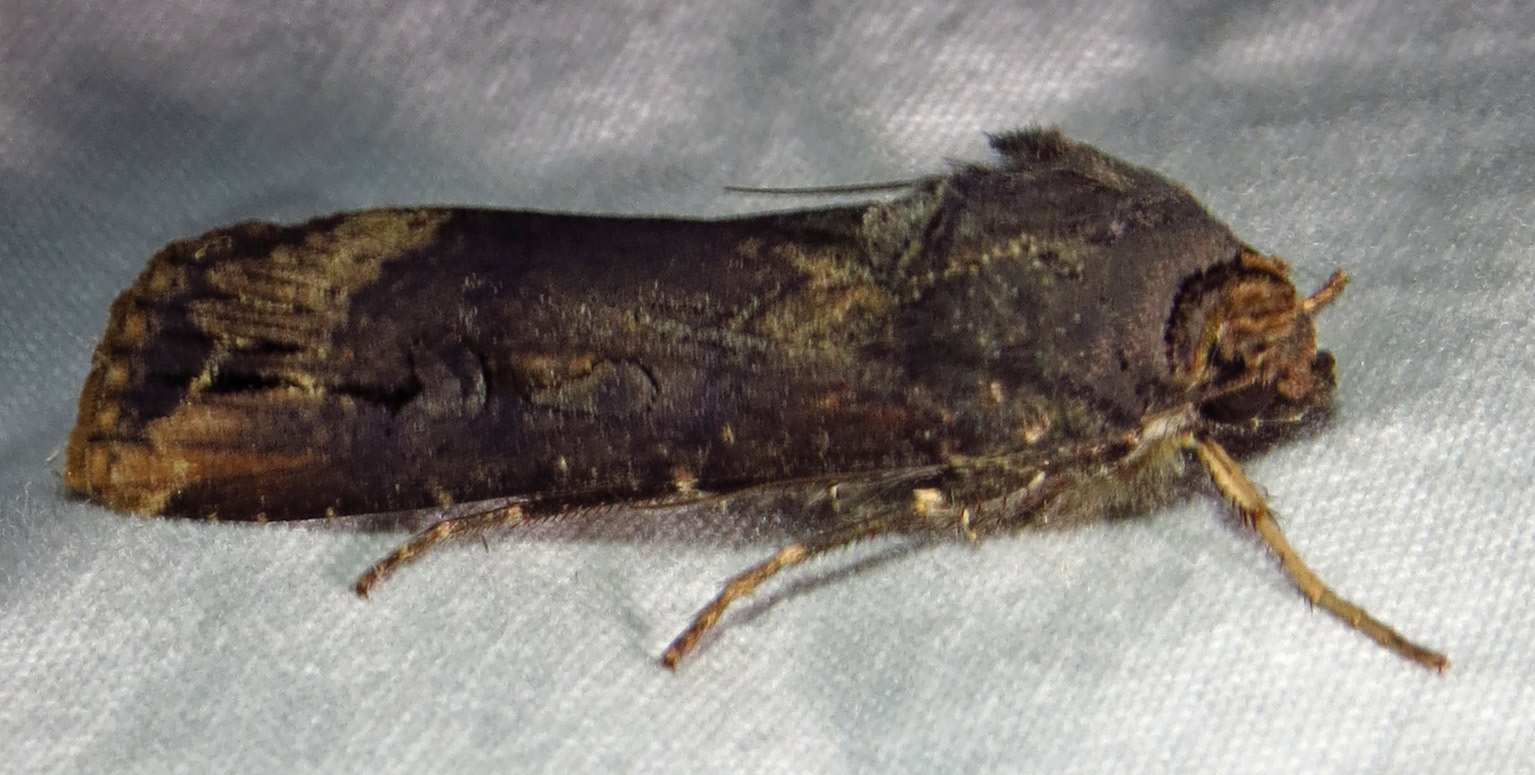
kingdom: Animalia
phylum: Arthropoda
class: Insecta
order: Lepidoptera
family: Noctuidae
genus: Agrotis
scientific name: Agrotis ipsilon
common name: Dark sword-grass
